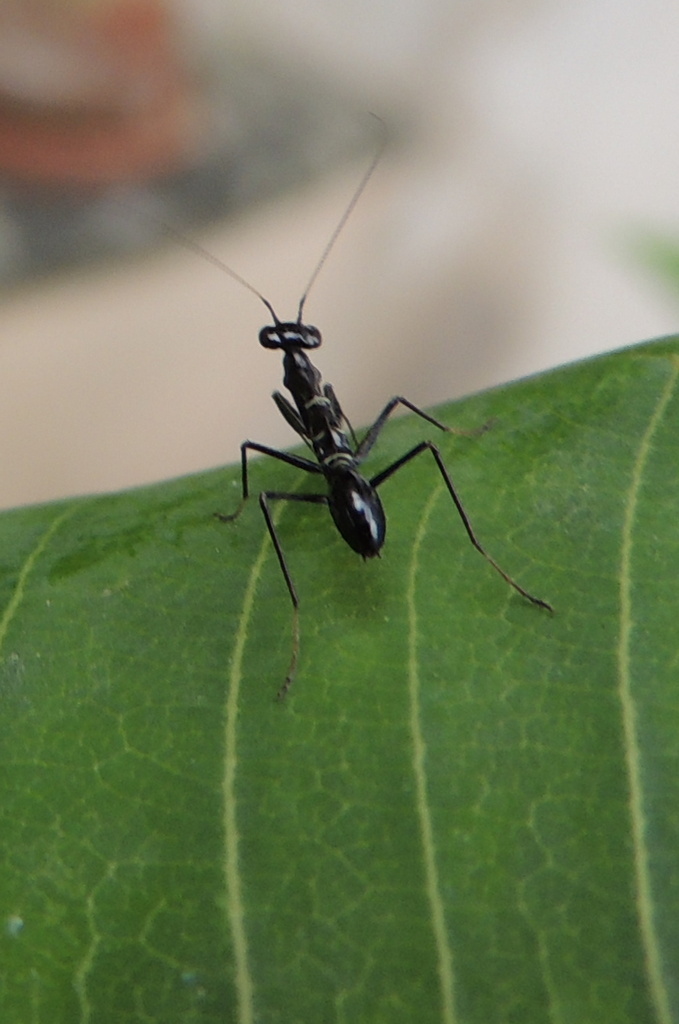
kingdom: Animalia
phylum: Arthropoda
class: Insecta
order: Mantodea
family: Hymenopodidae
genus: Odontomantis
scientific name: Odontomantis planiceps
